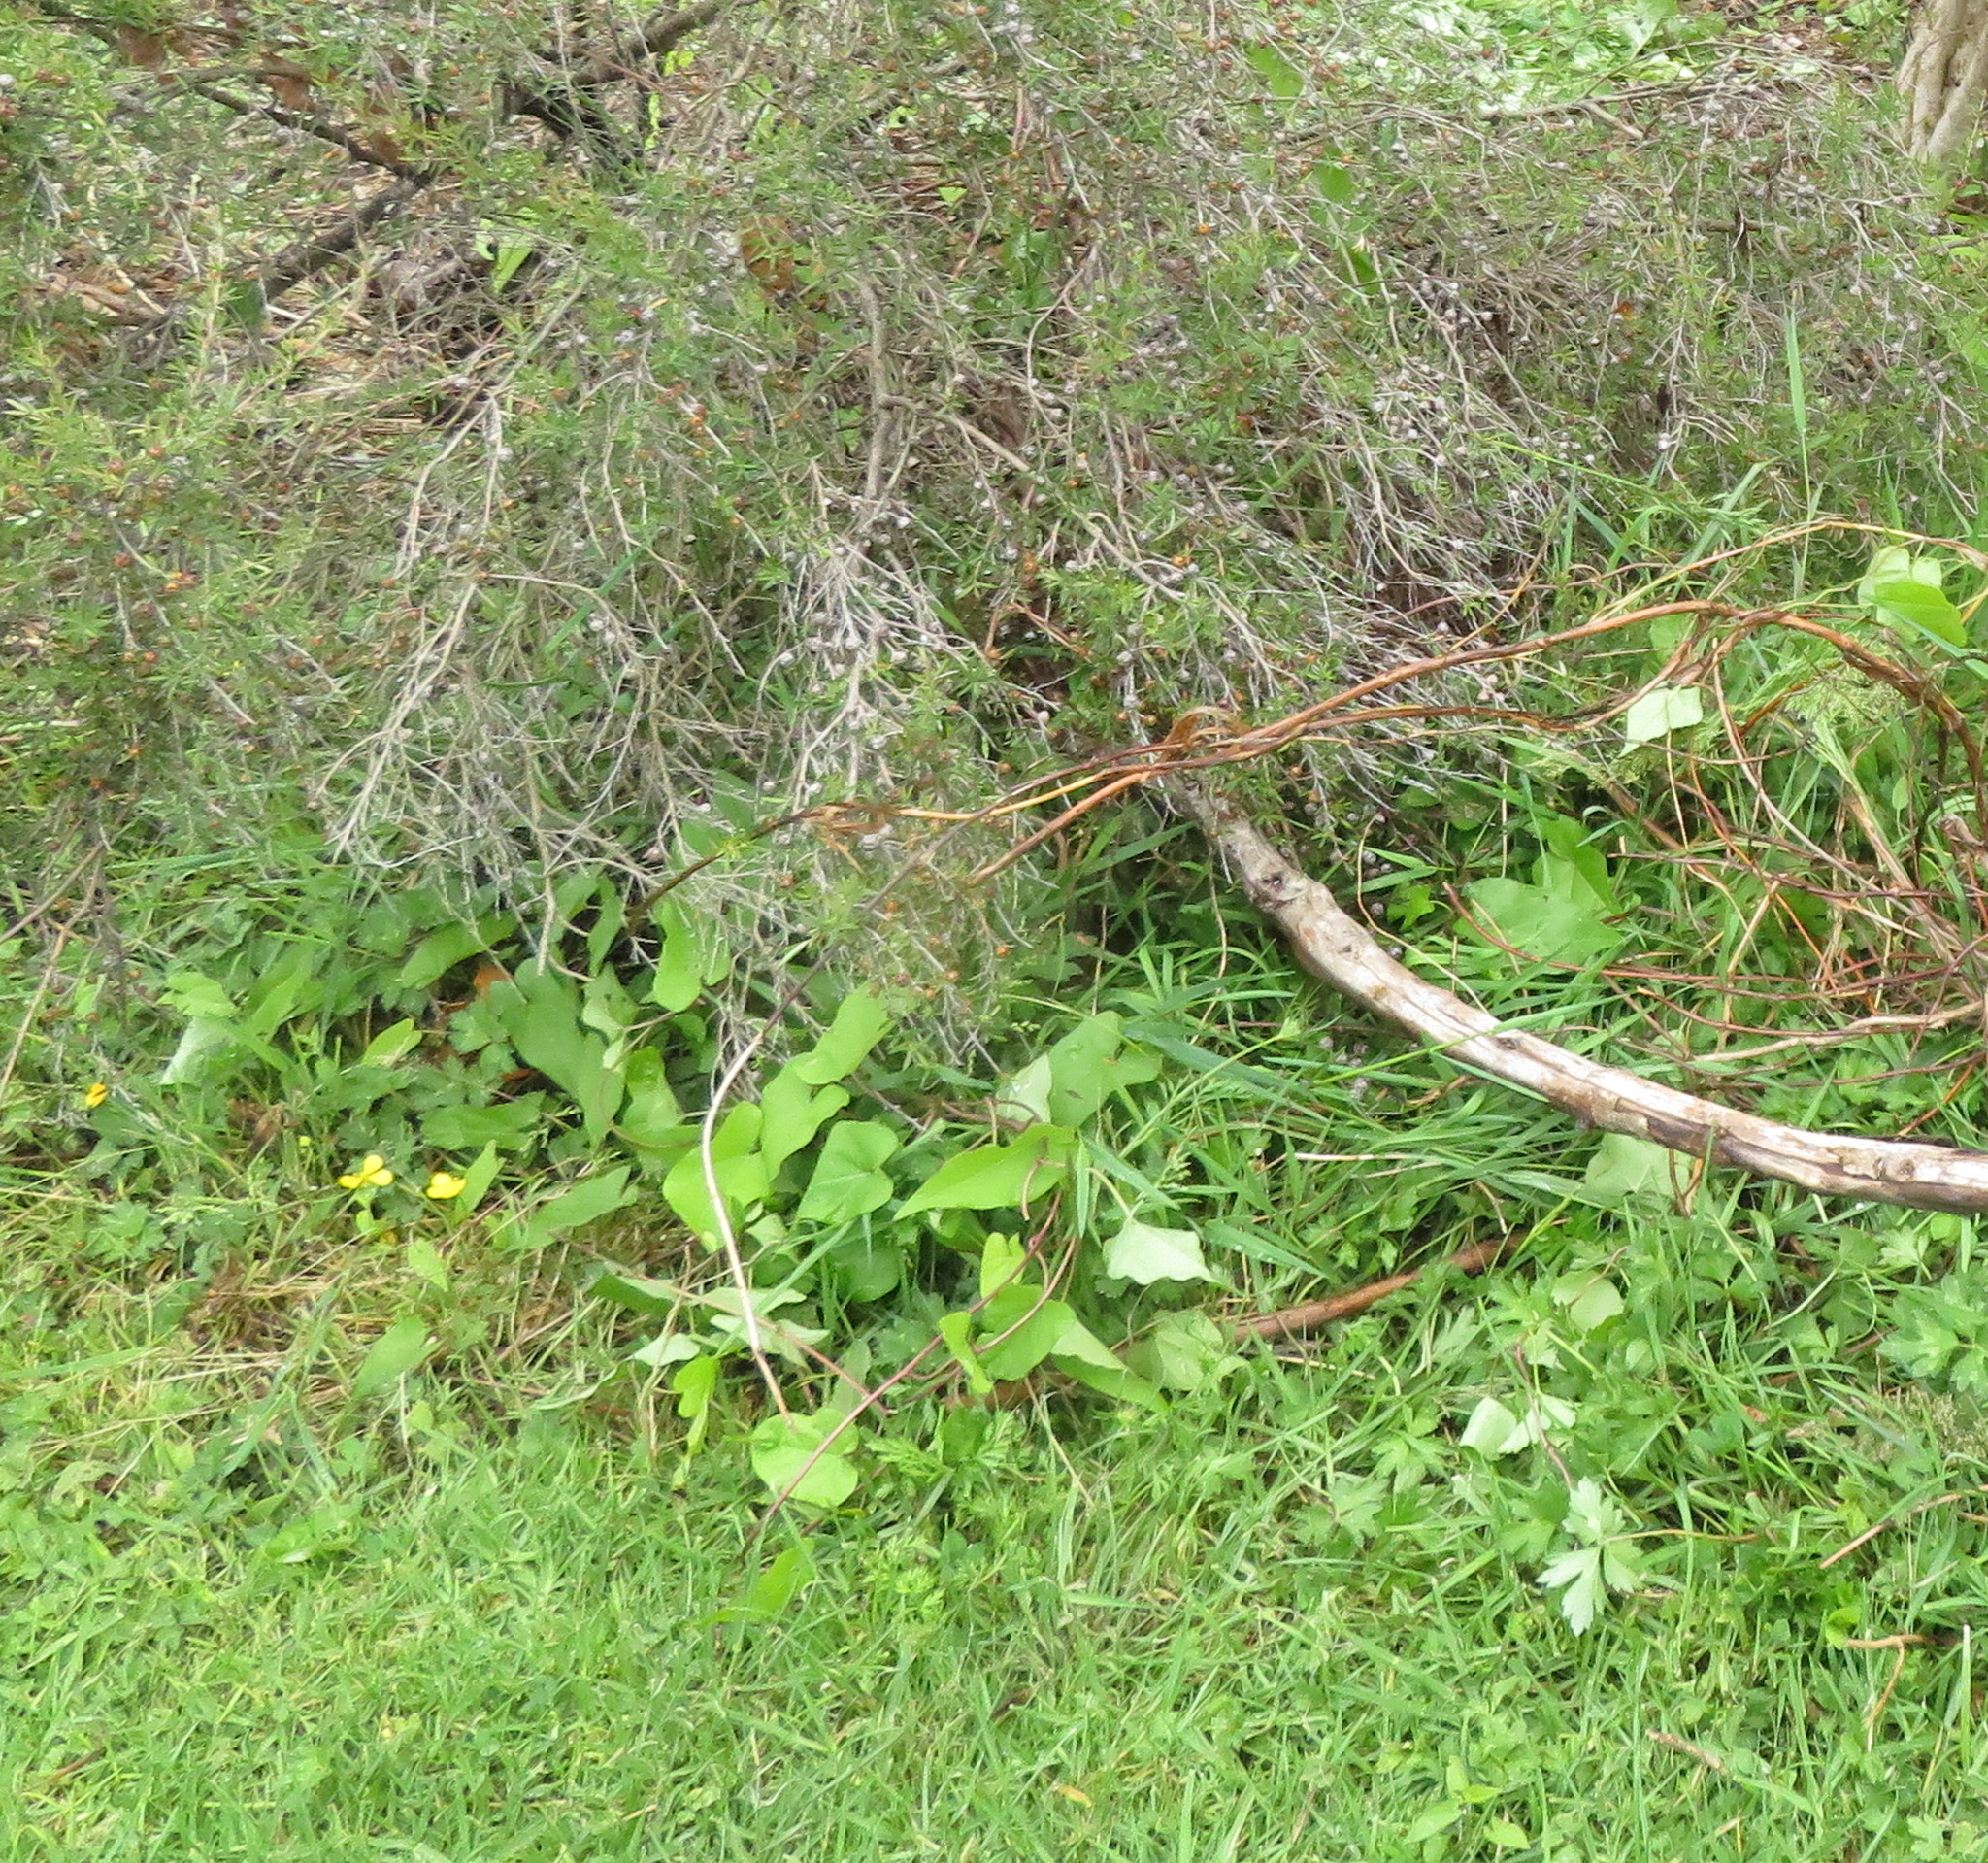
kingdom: Plantae
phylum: Tracheophyta
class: Magnoliopsida
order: Myrtales
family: Myrtaceae
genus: Leptospermum
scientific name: Leptospermum scoparium
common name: Broom tea-tree
